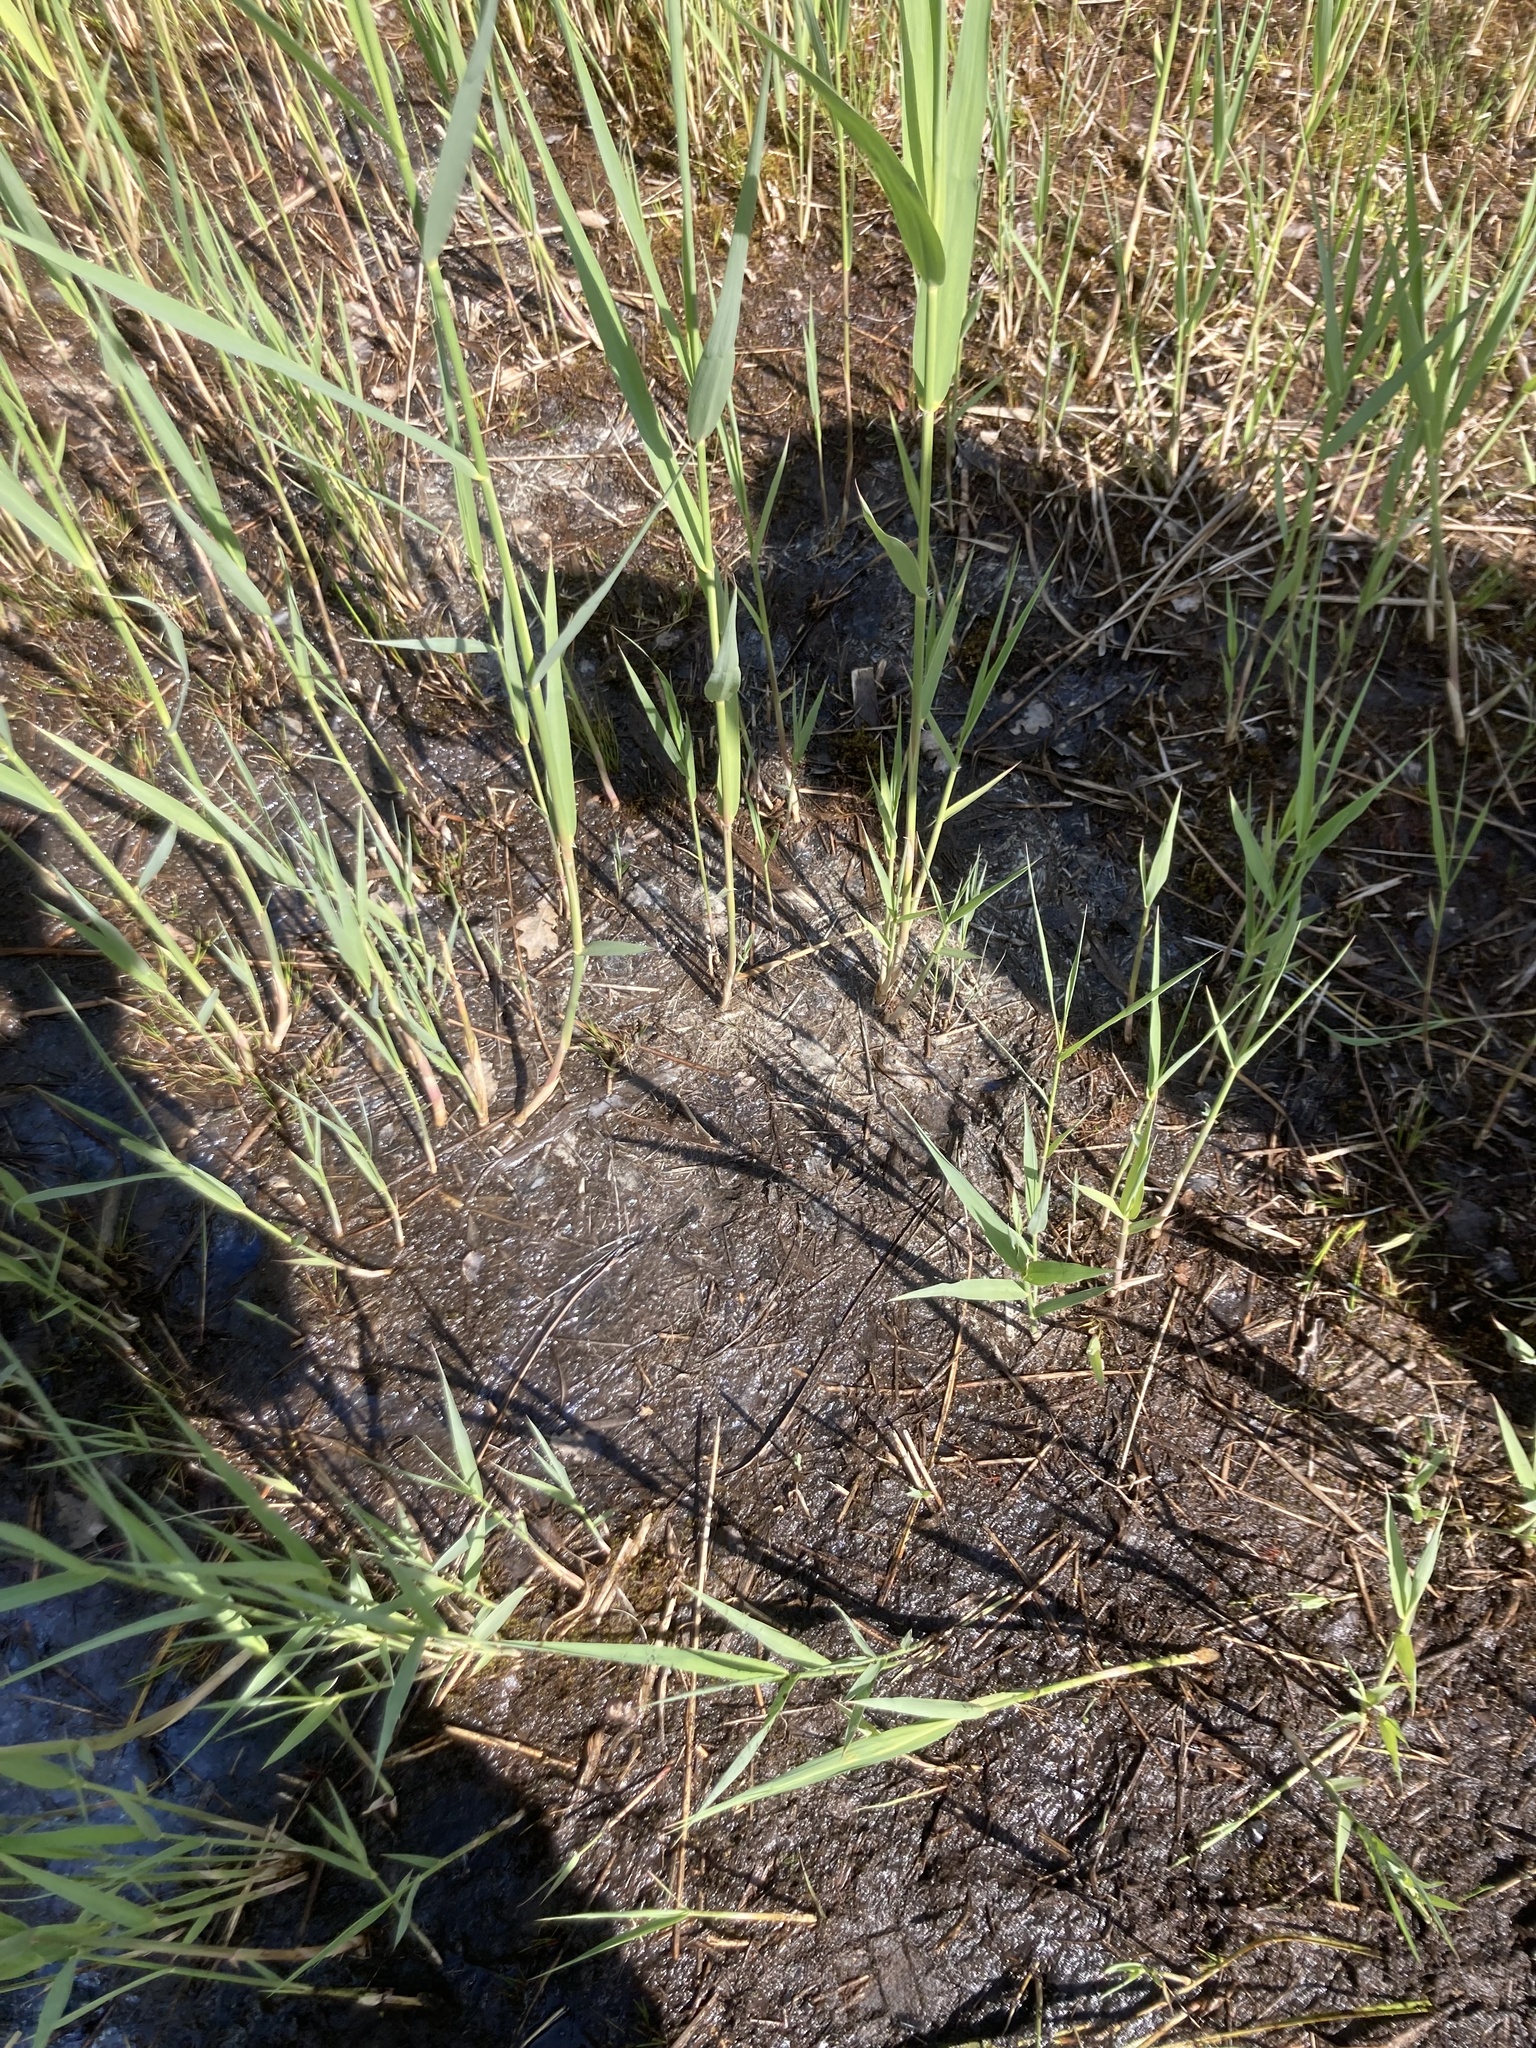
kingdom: Plantae
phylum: Tracheophyta
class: Liliopsida
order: Poales
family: Poaceae
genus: Phragmites
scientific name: Phragmites australis
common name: Common reed
